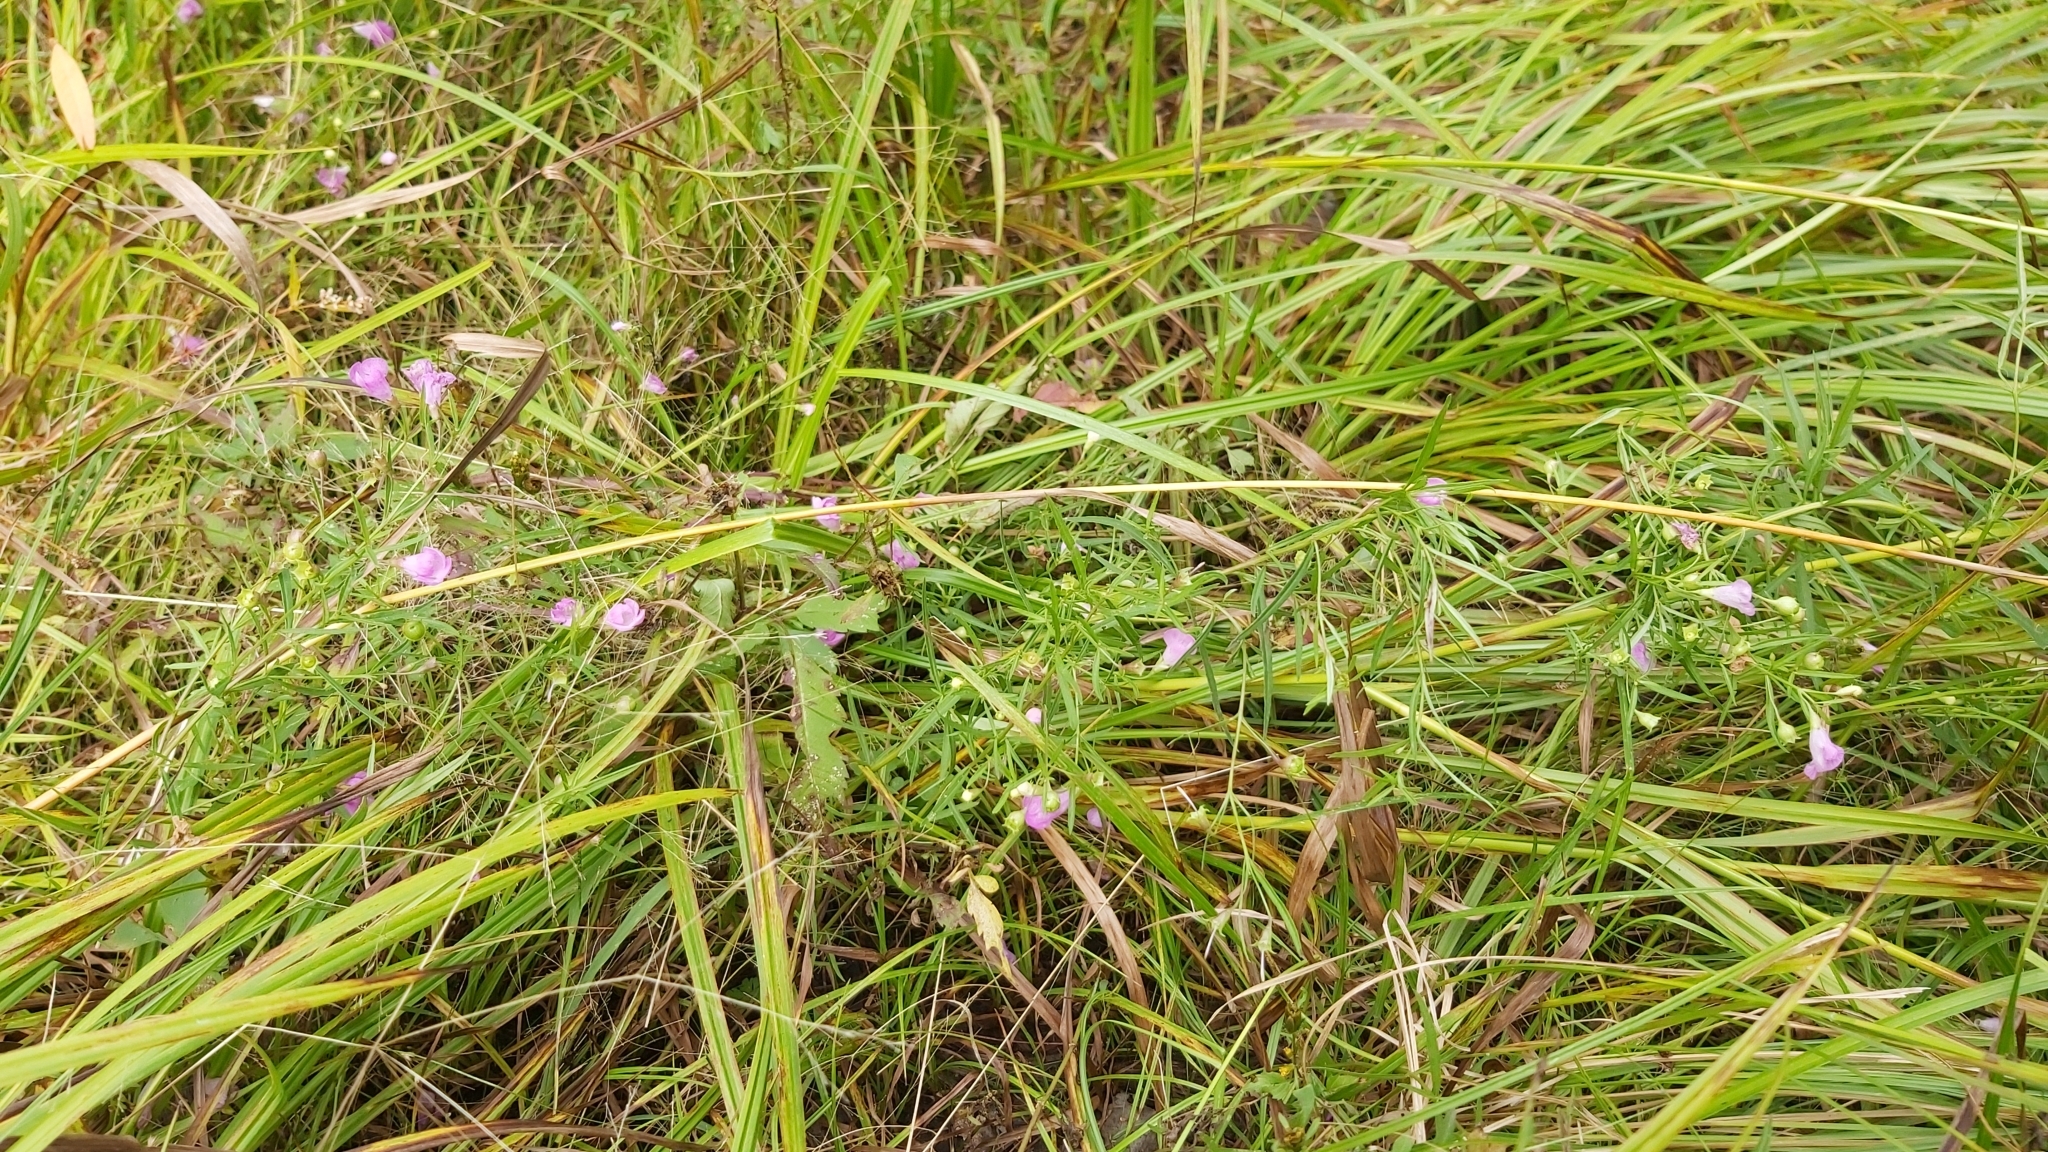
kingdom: Plantae
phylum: Tracheophyta
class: Magnoliopsida
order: Lamiales
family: Orobanchaceae
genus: Agalinis
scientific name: Agalinis tenuifolia
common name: Slender agalinis
